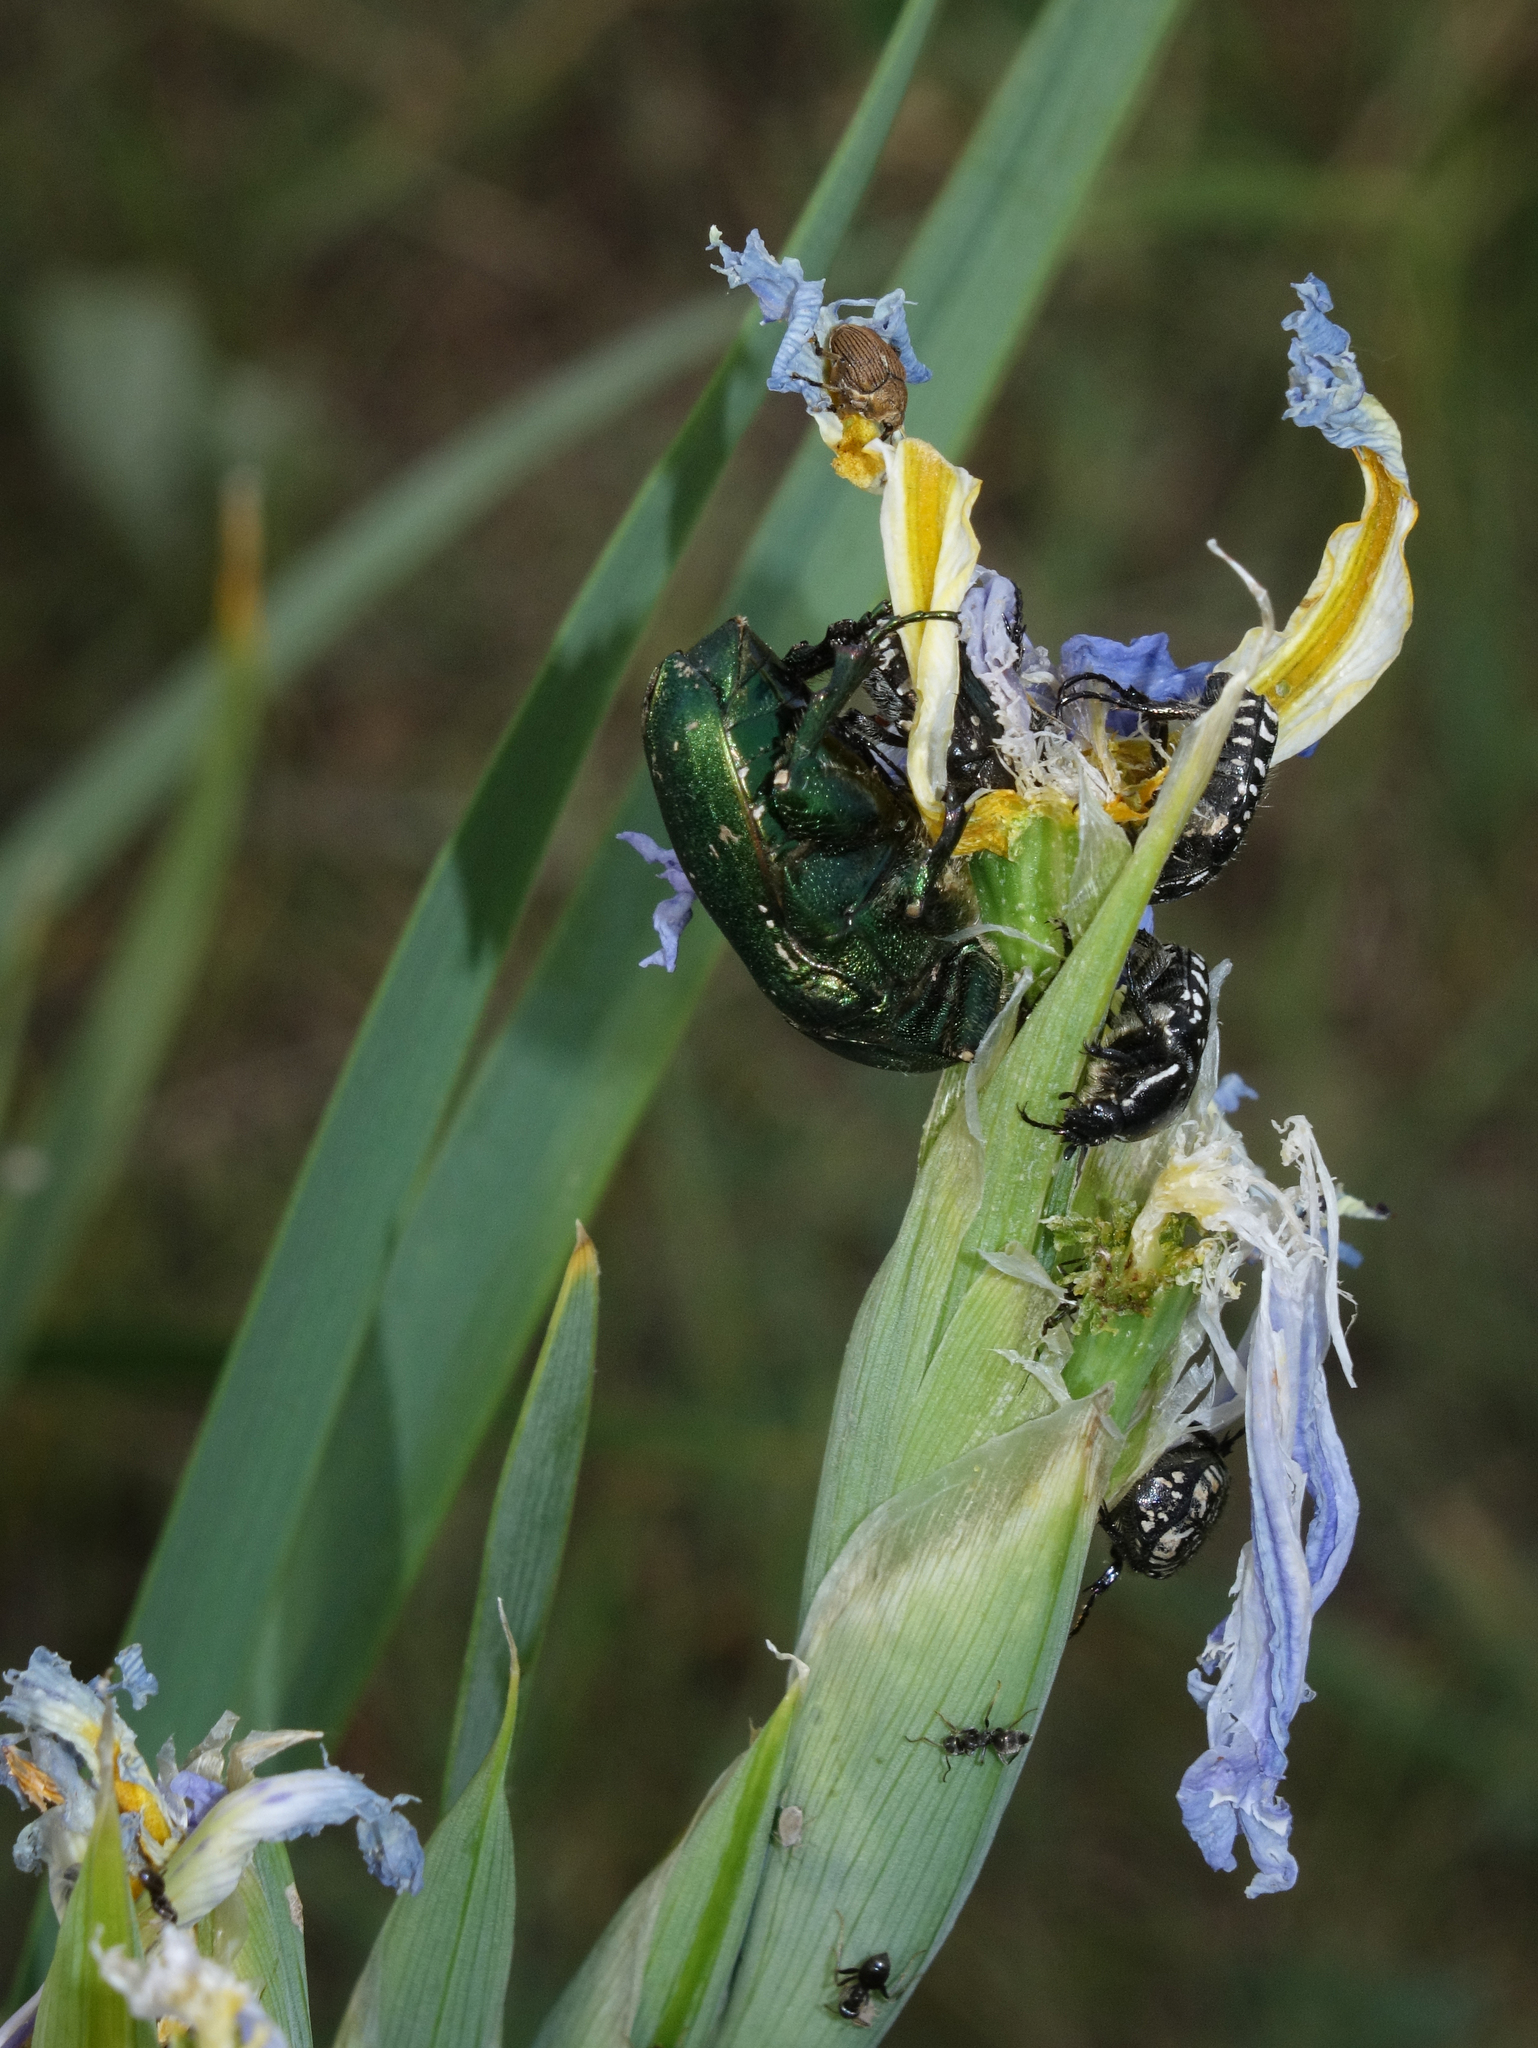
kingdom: Animalia
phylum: Arthropoda
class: Insecta
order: Coleoptera
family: Scarabaeidae
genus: Protaetia
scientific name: Protaetia ungarica
